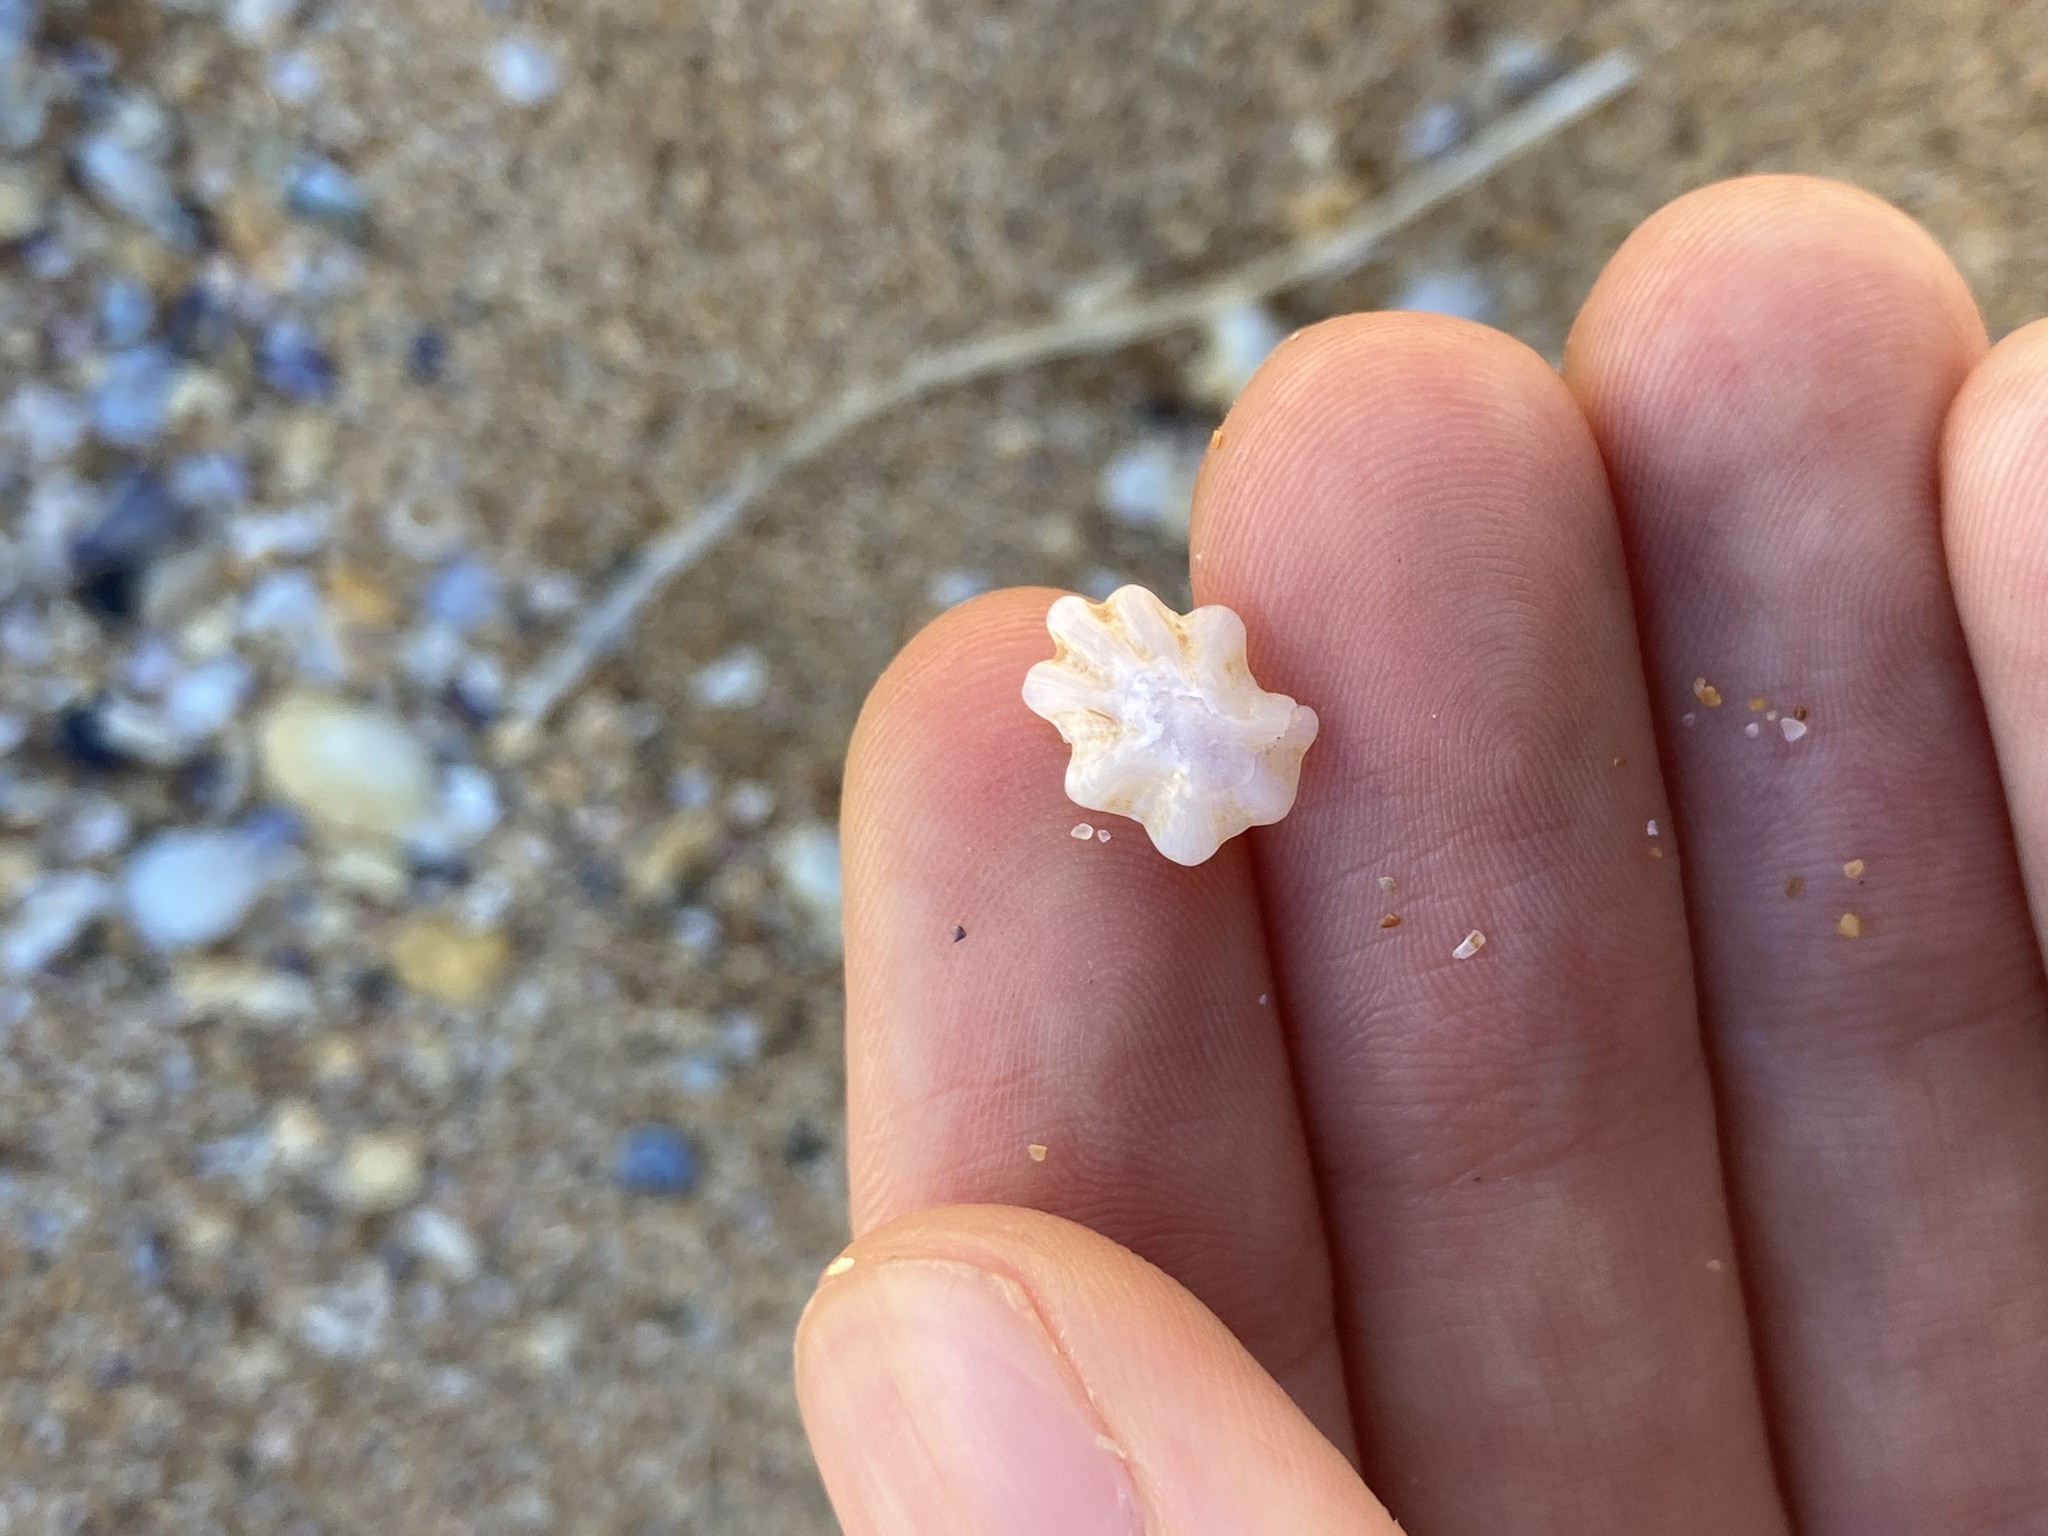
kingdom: Animalia
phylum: Mollusca
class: Gastropoda
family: Patellidae
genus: Scutellastra
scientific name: Scutellastra chapmani
